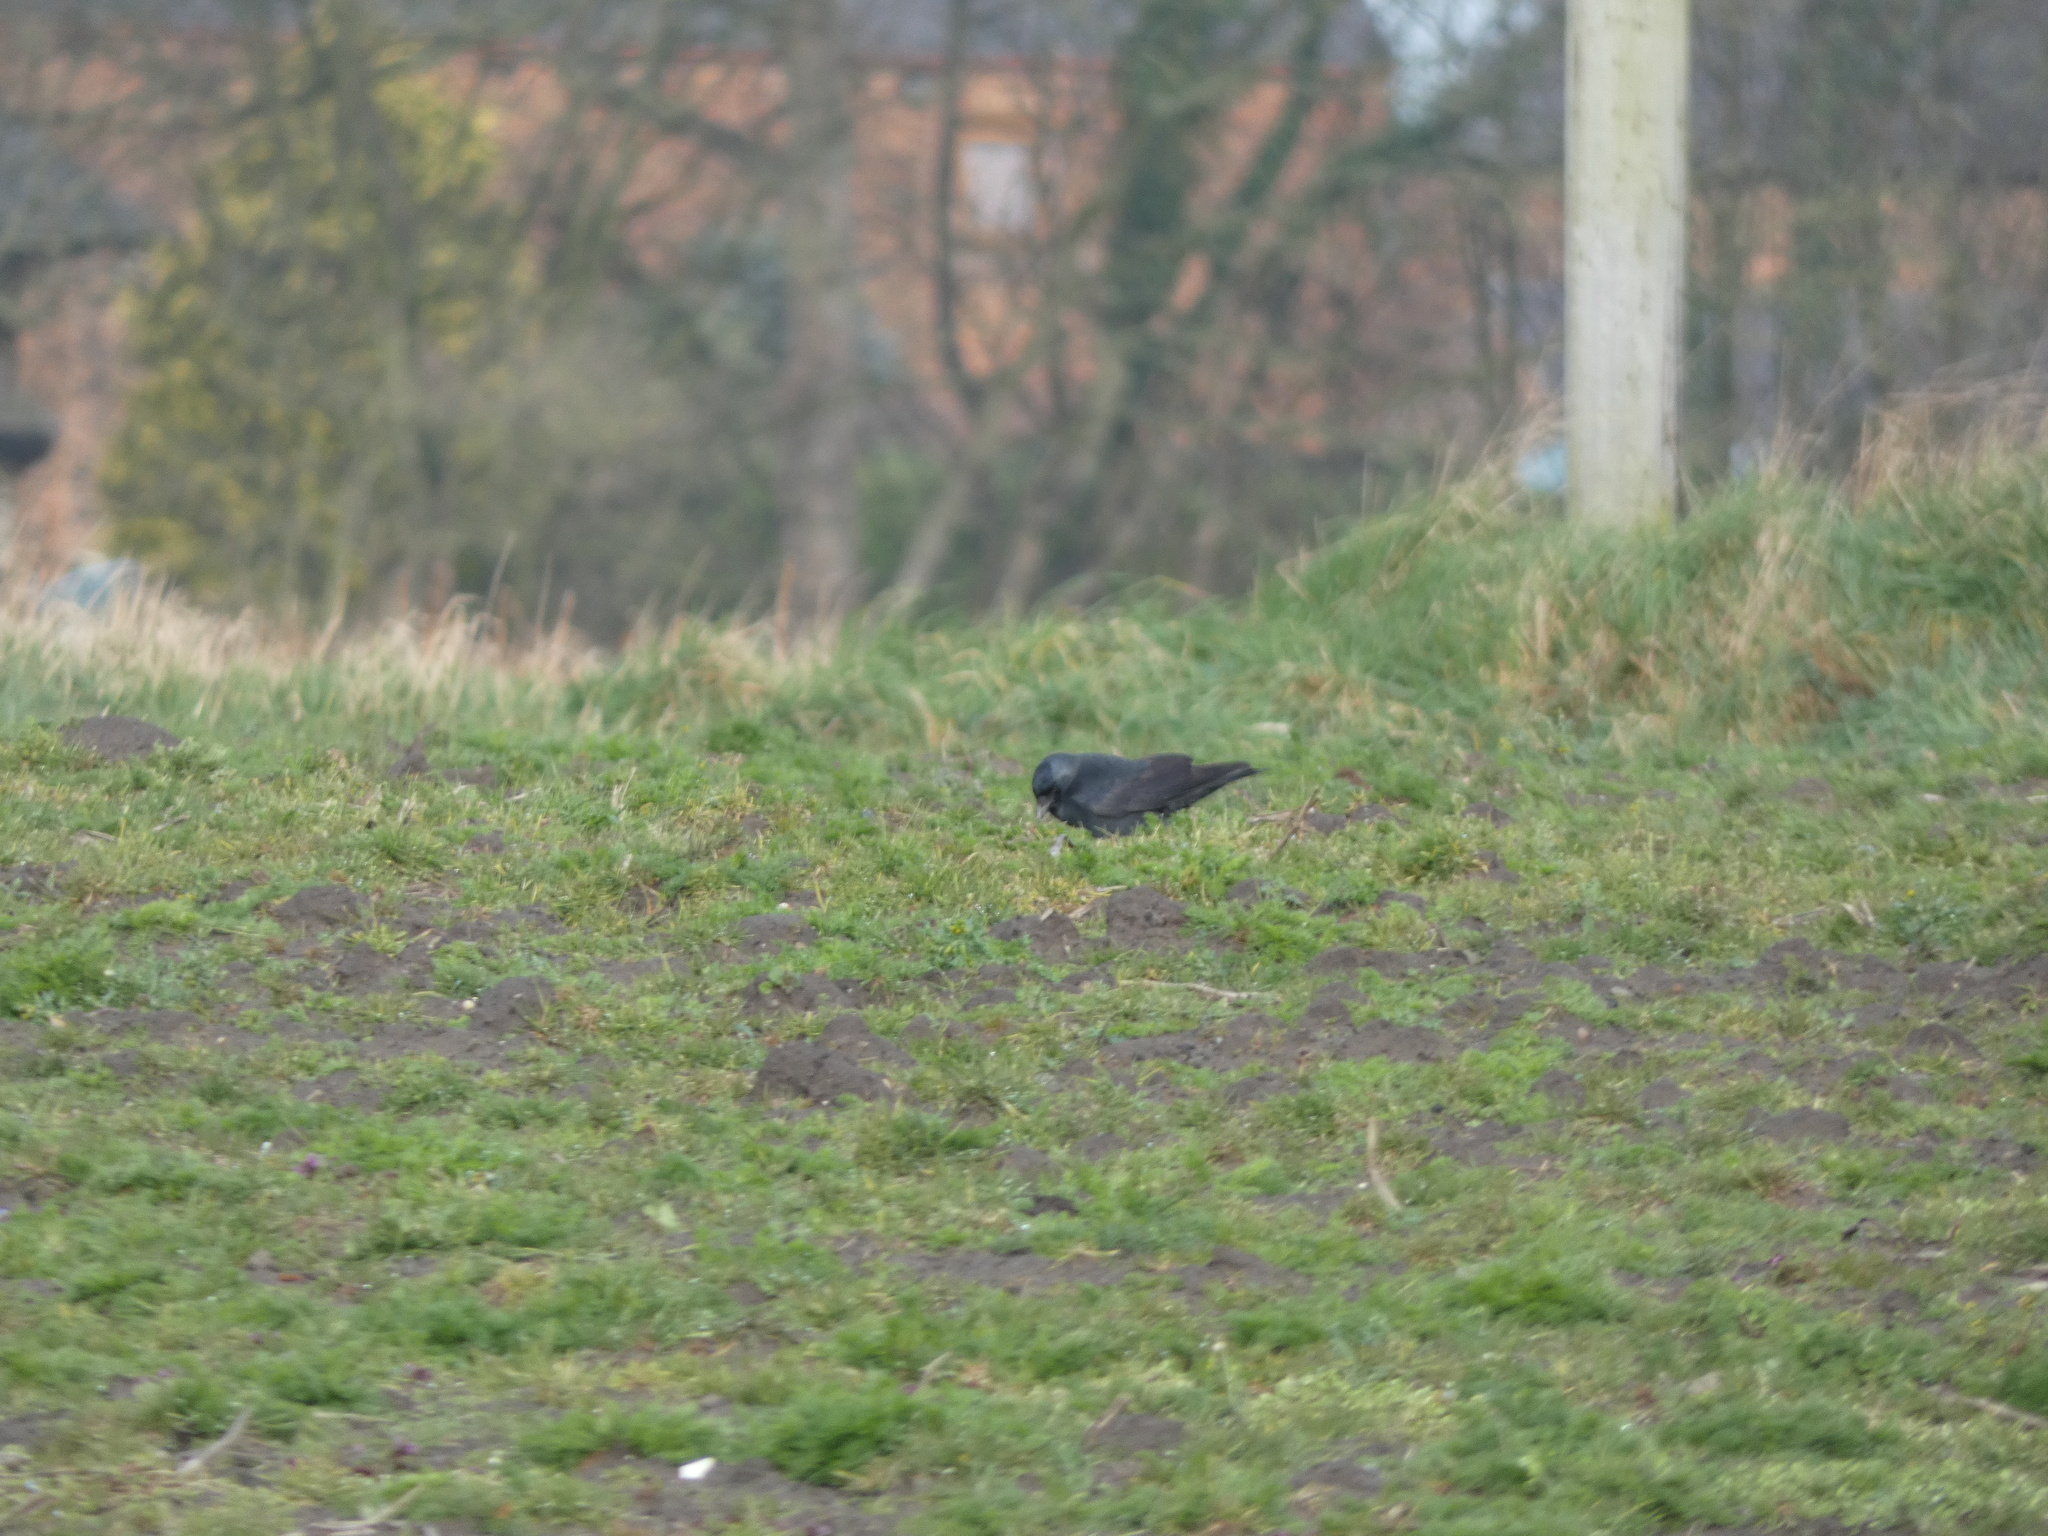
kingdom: Animalia
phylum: Chordata
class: Aves
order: Passeriformes
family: Corvidae
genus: Coloeus
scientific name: Coloeus monedula
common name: Western jackdaw
